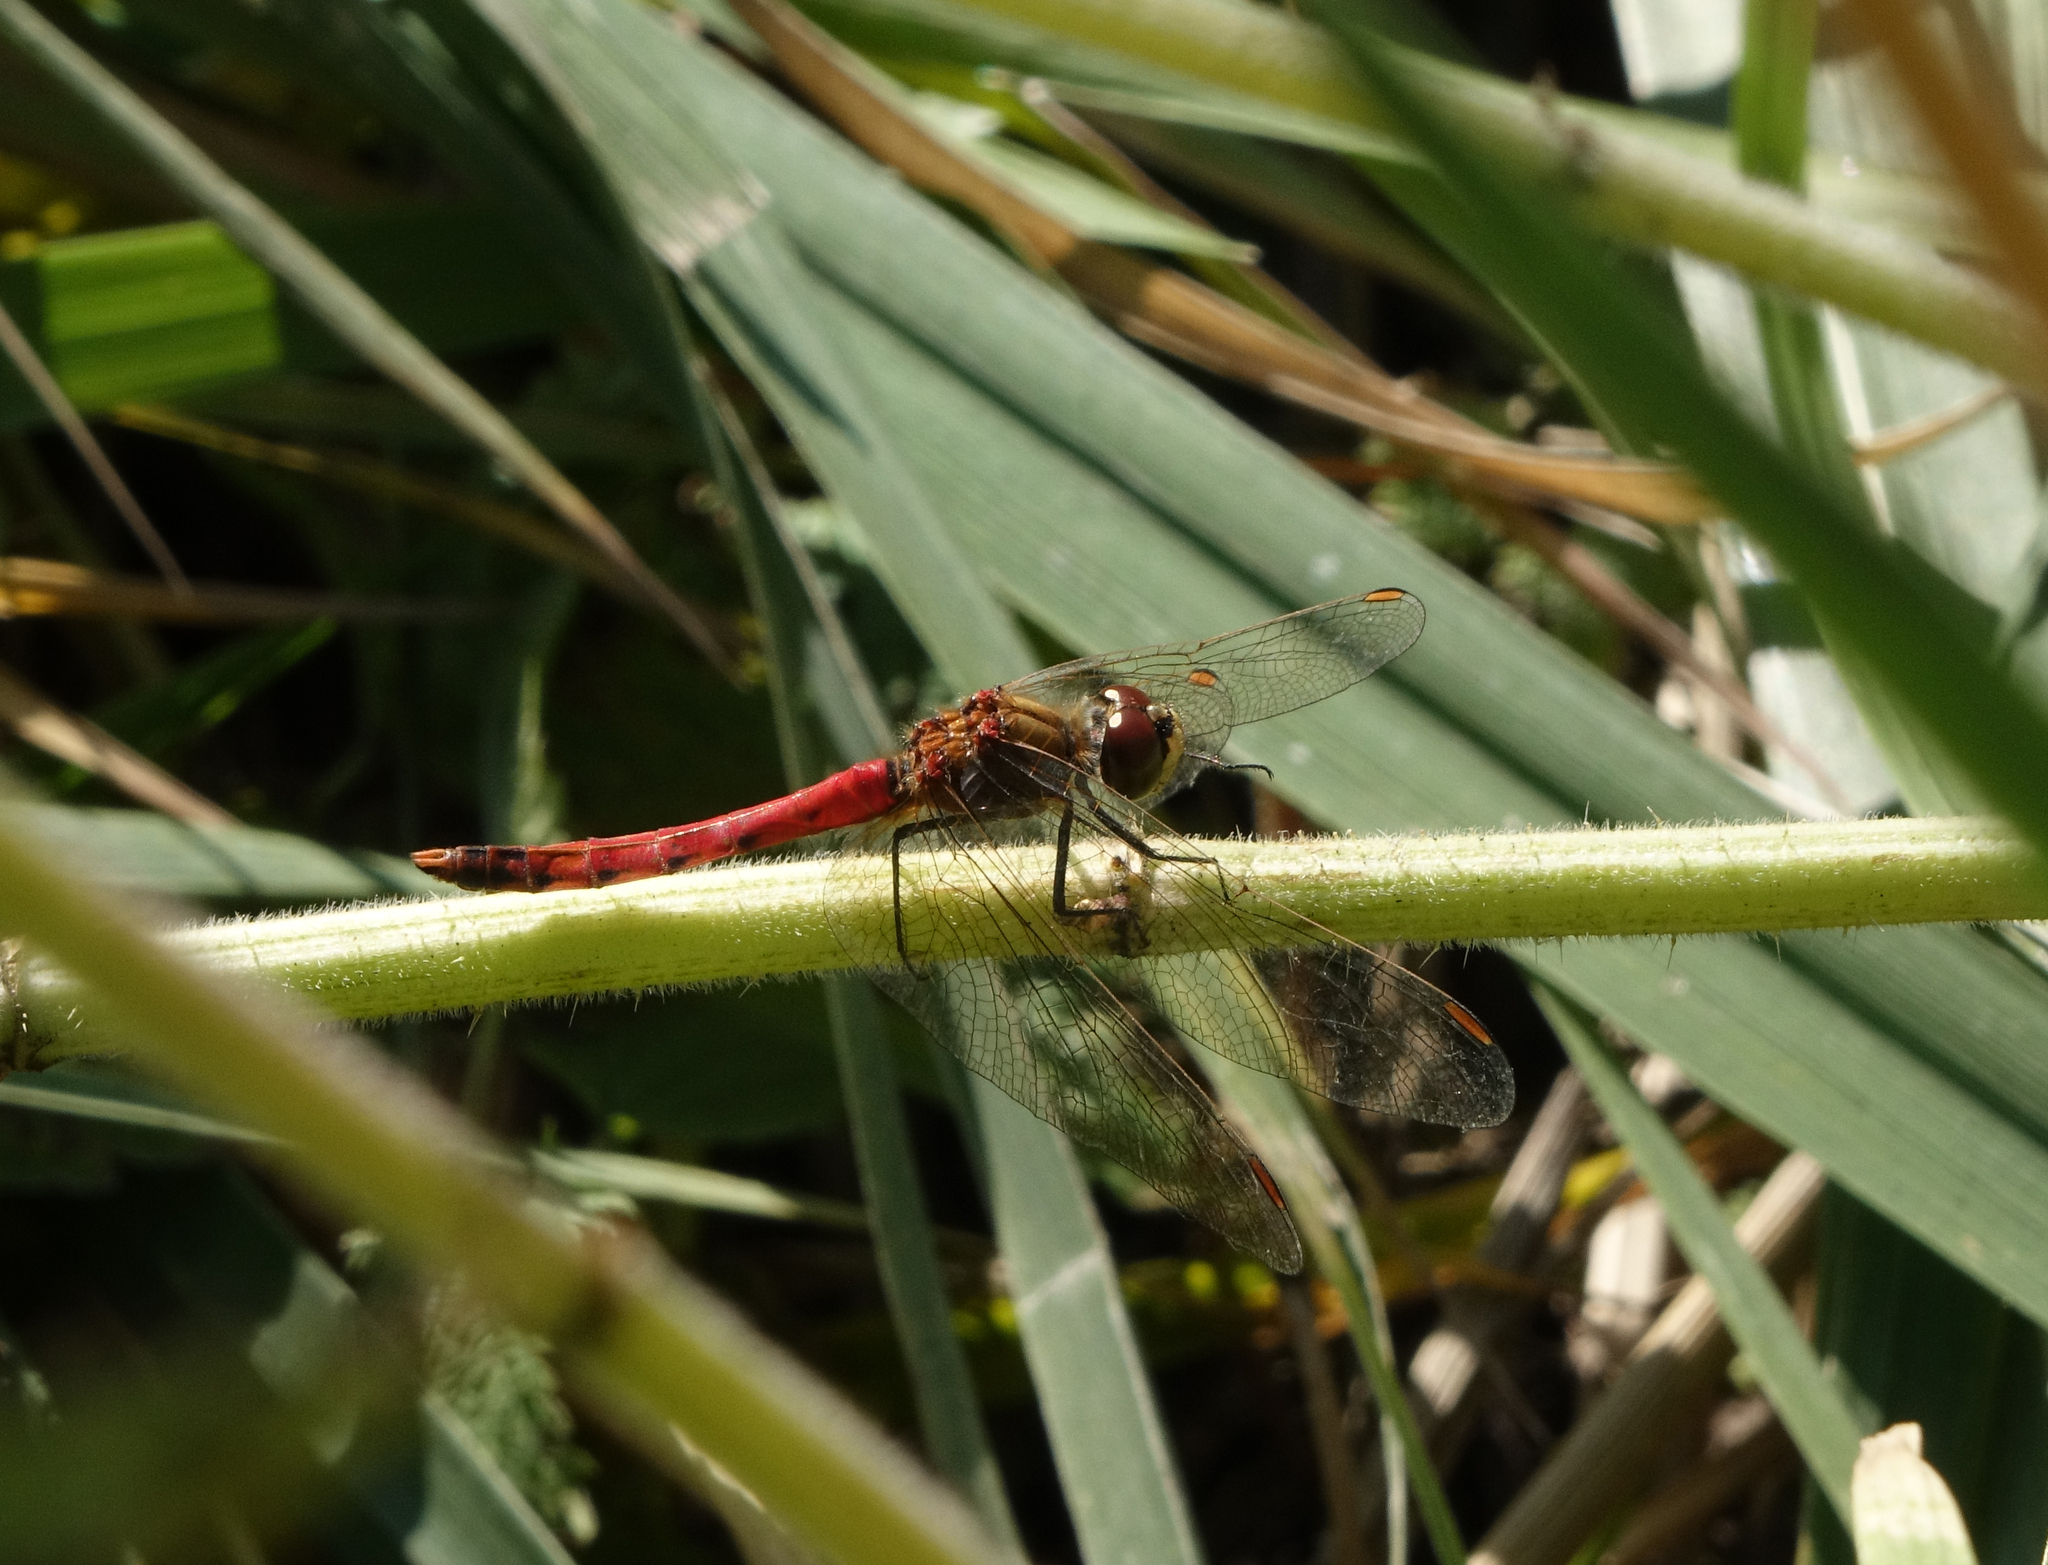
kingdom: Animalia
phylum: Arthropoda
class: Insecta
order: Odonata
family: Libellulidae
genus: Sympetrum
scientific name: Sympetrum depressiusculum
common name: Spotted darter
